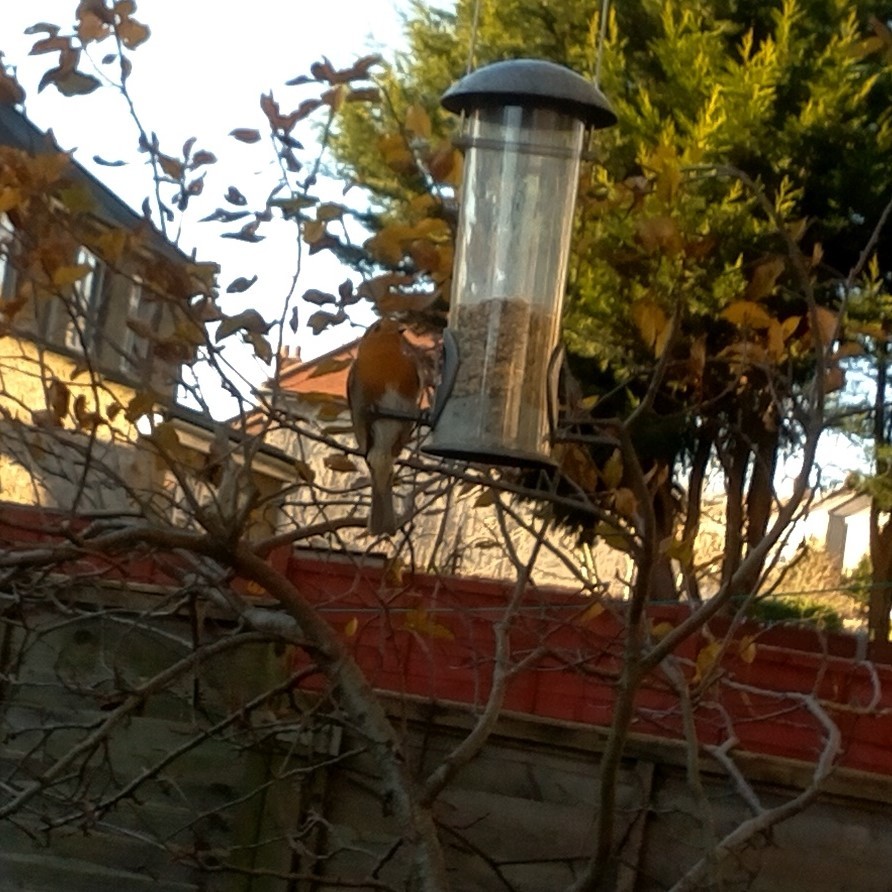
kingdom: Animalia
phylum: Chordata
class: Aves
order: Passeriformes
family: Muscicapidae
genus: Erithacus
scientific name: Erithacus rubecula
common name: European robin
